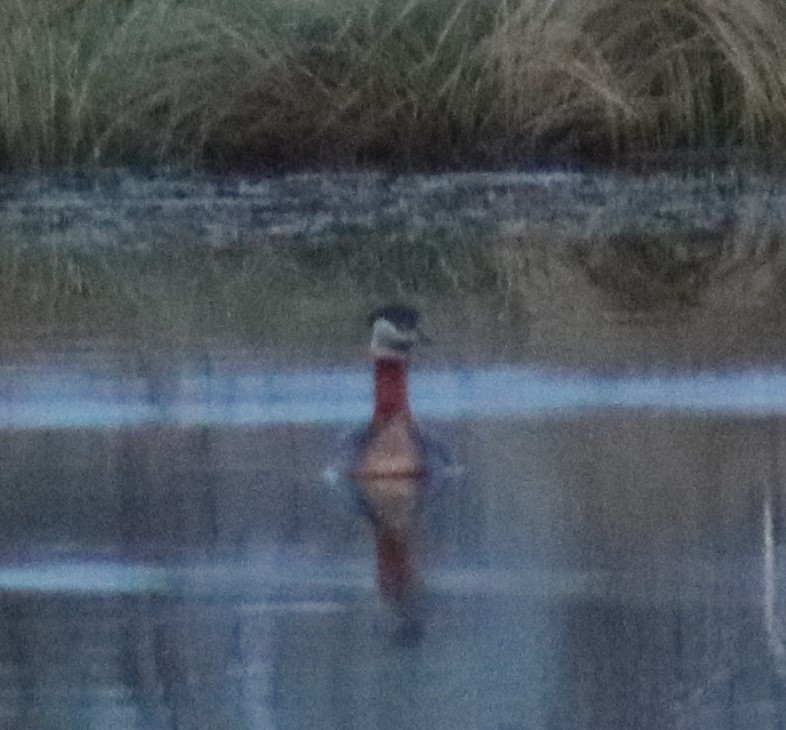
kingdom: Animalia
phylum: Chordata
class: Aves
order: Podicipediformes
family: Podicipedidae
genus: Podiceps
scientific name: Podiceps grisegena
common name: Red-necked grebe
